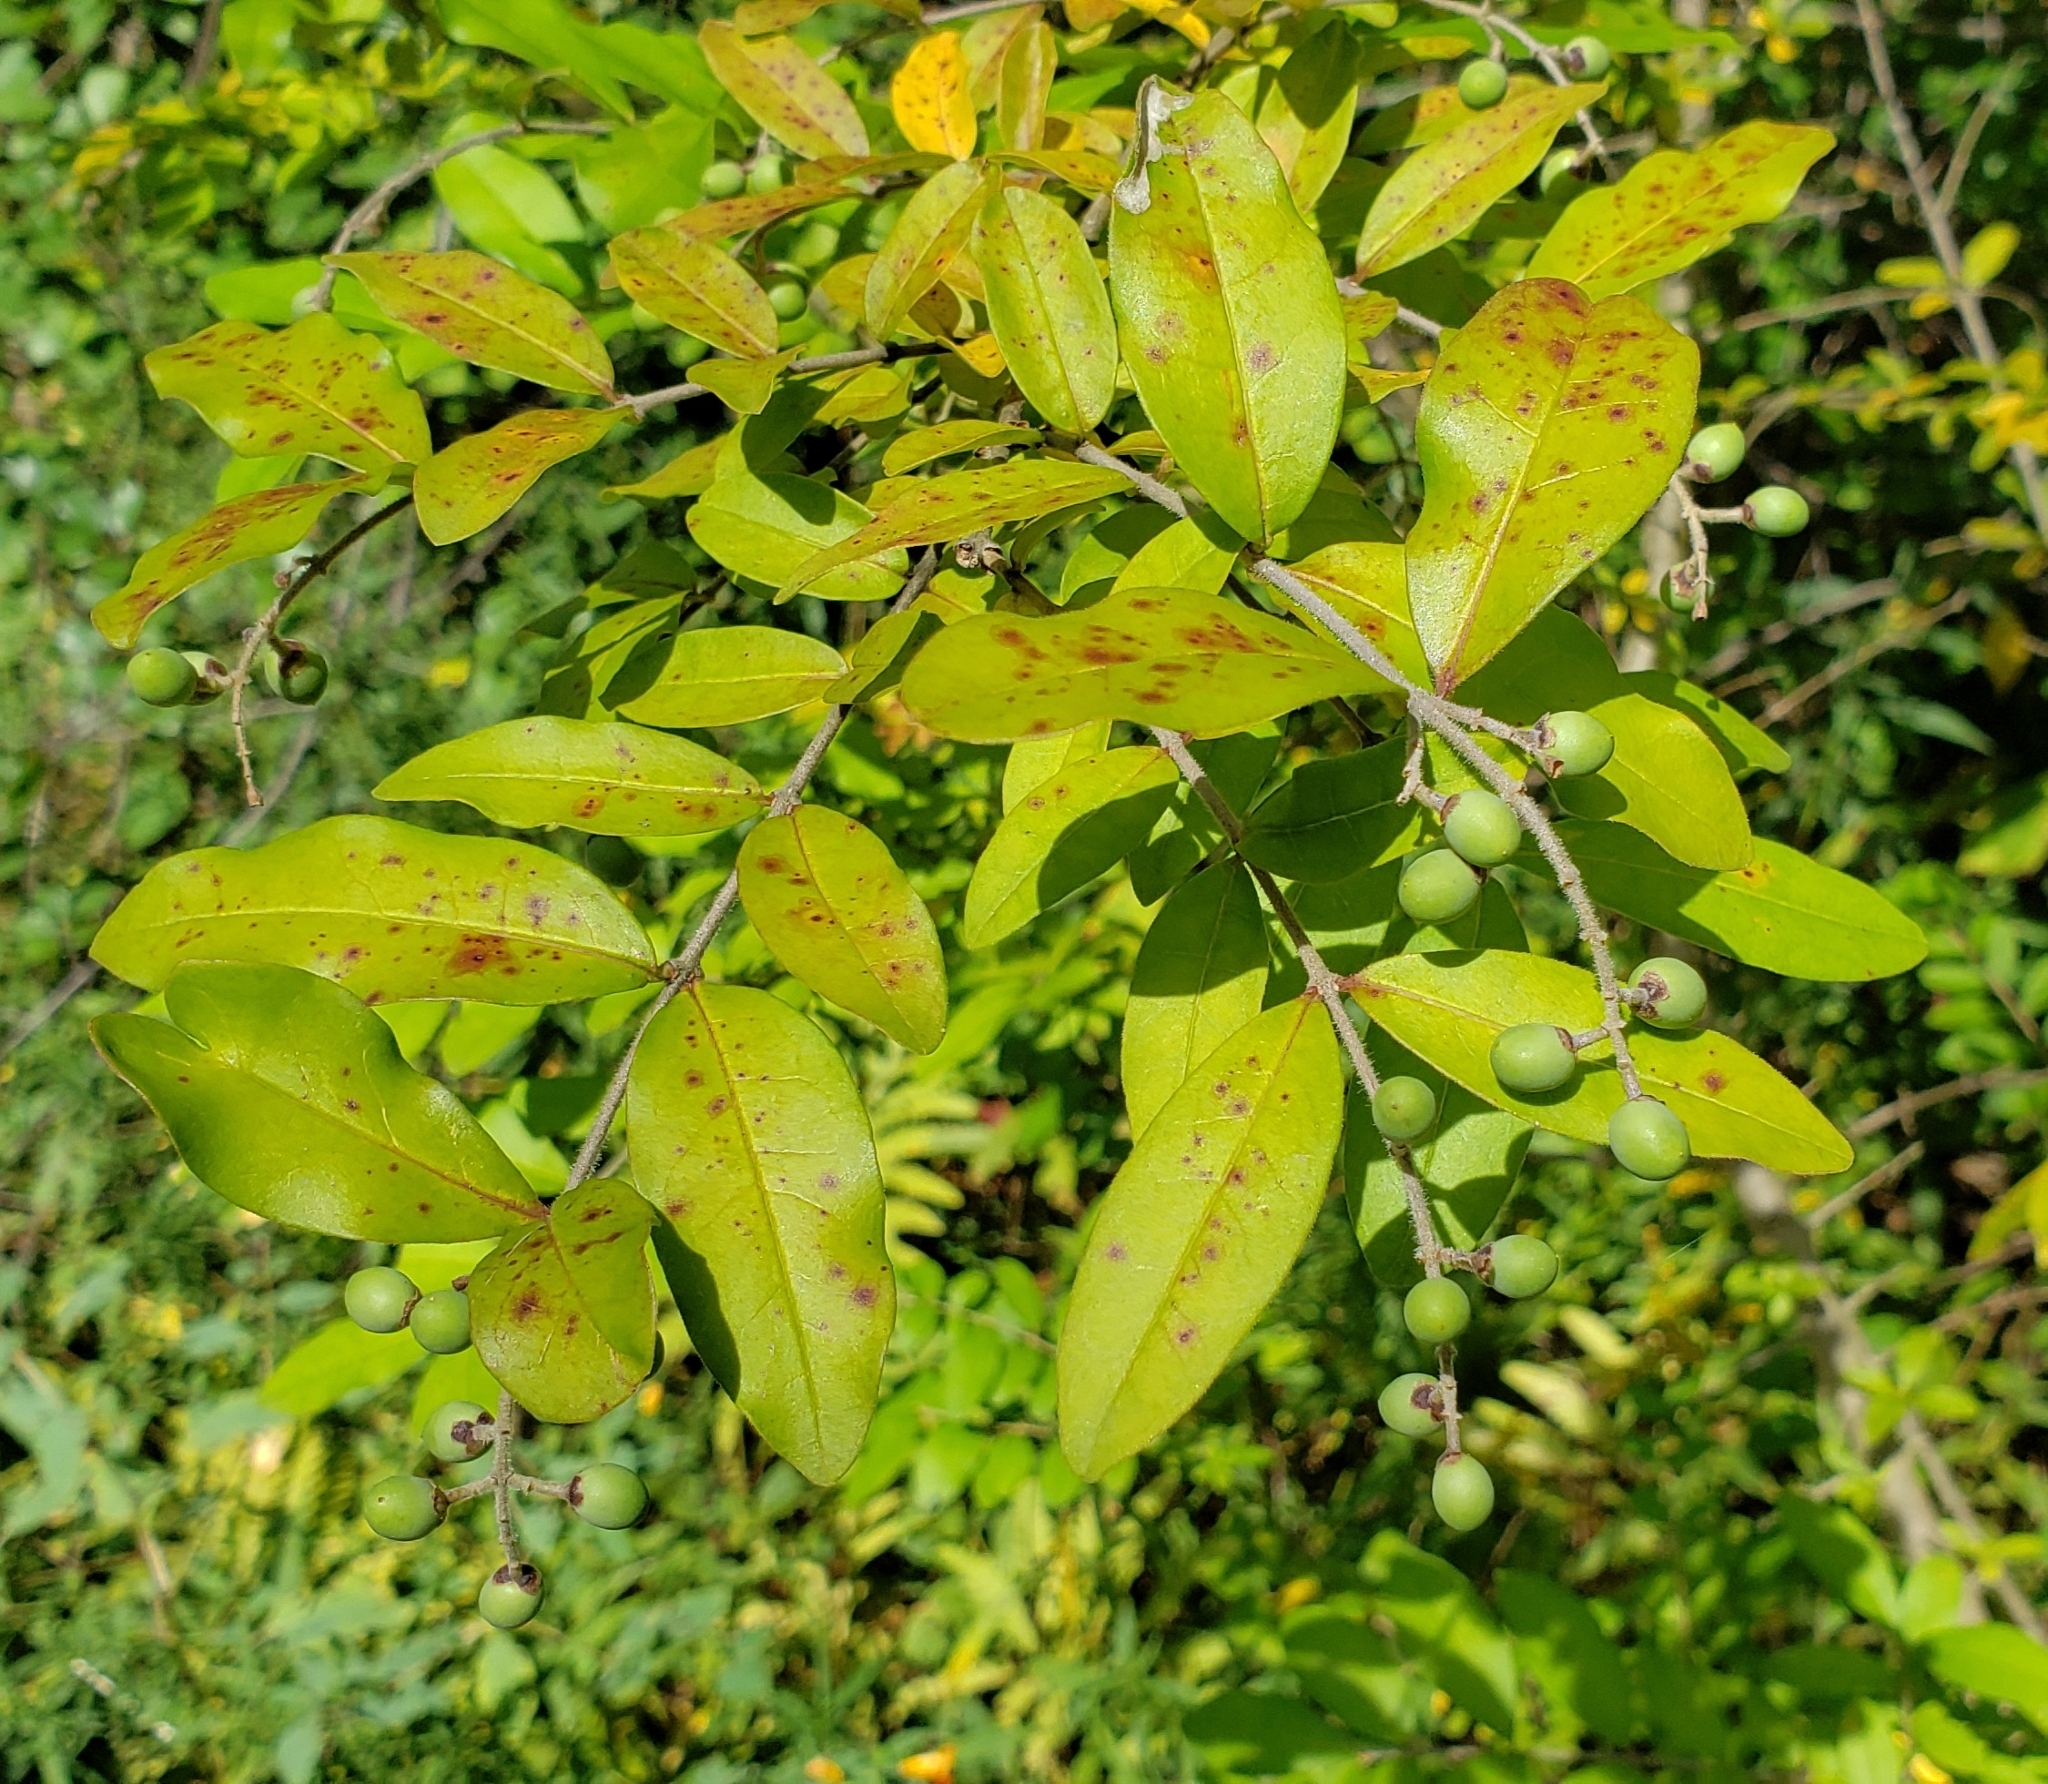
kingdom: Plantae
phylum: Tracheophyta
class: Magnoliopsida
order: Lamiales
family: Oleaceae
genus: Ligustrum
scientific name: Ligustrum obtusifolium
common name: Border privet
